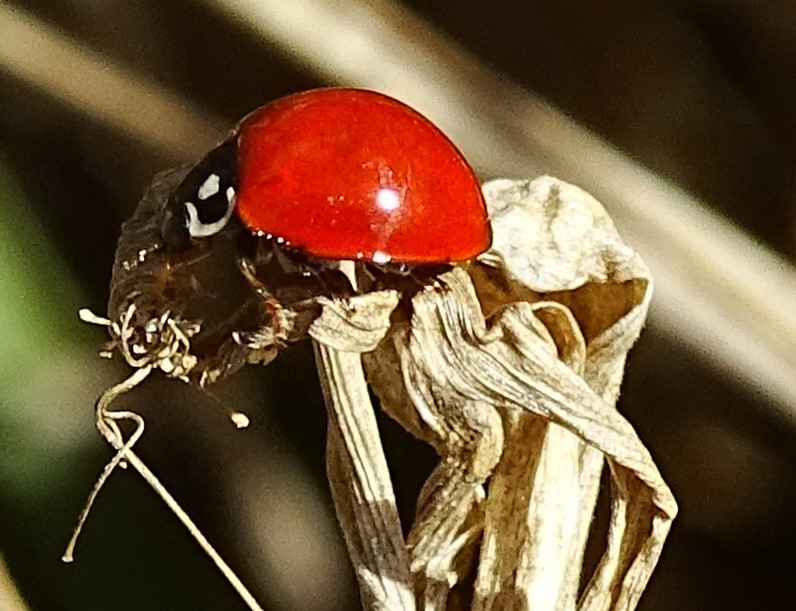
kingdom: Animalia
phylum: Arthropoda
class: Insecta
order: Coleoptera
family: Coccinellidae
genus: Cycloneda
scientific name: Cycloneda sanguinea
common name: Ladybird beetle
